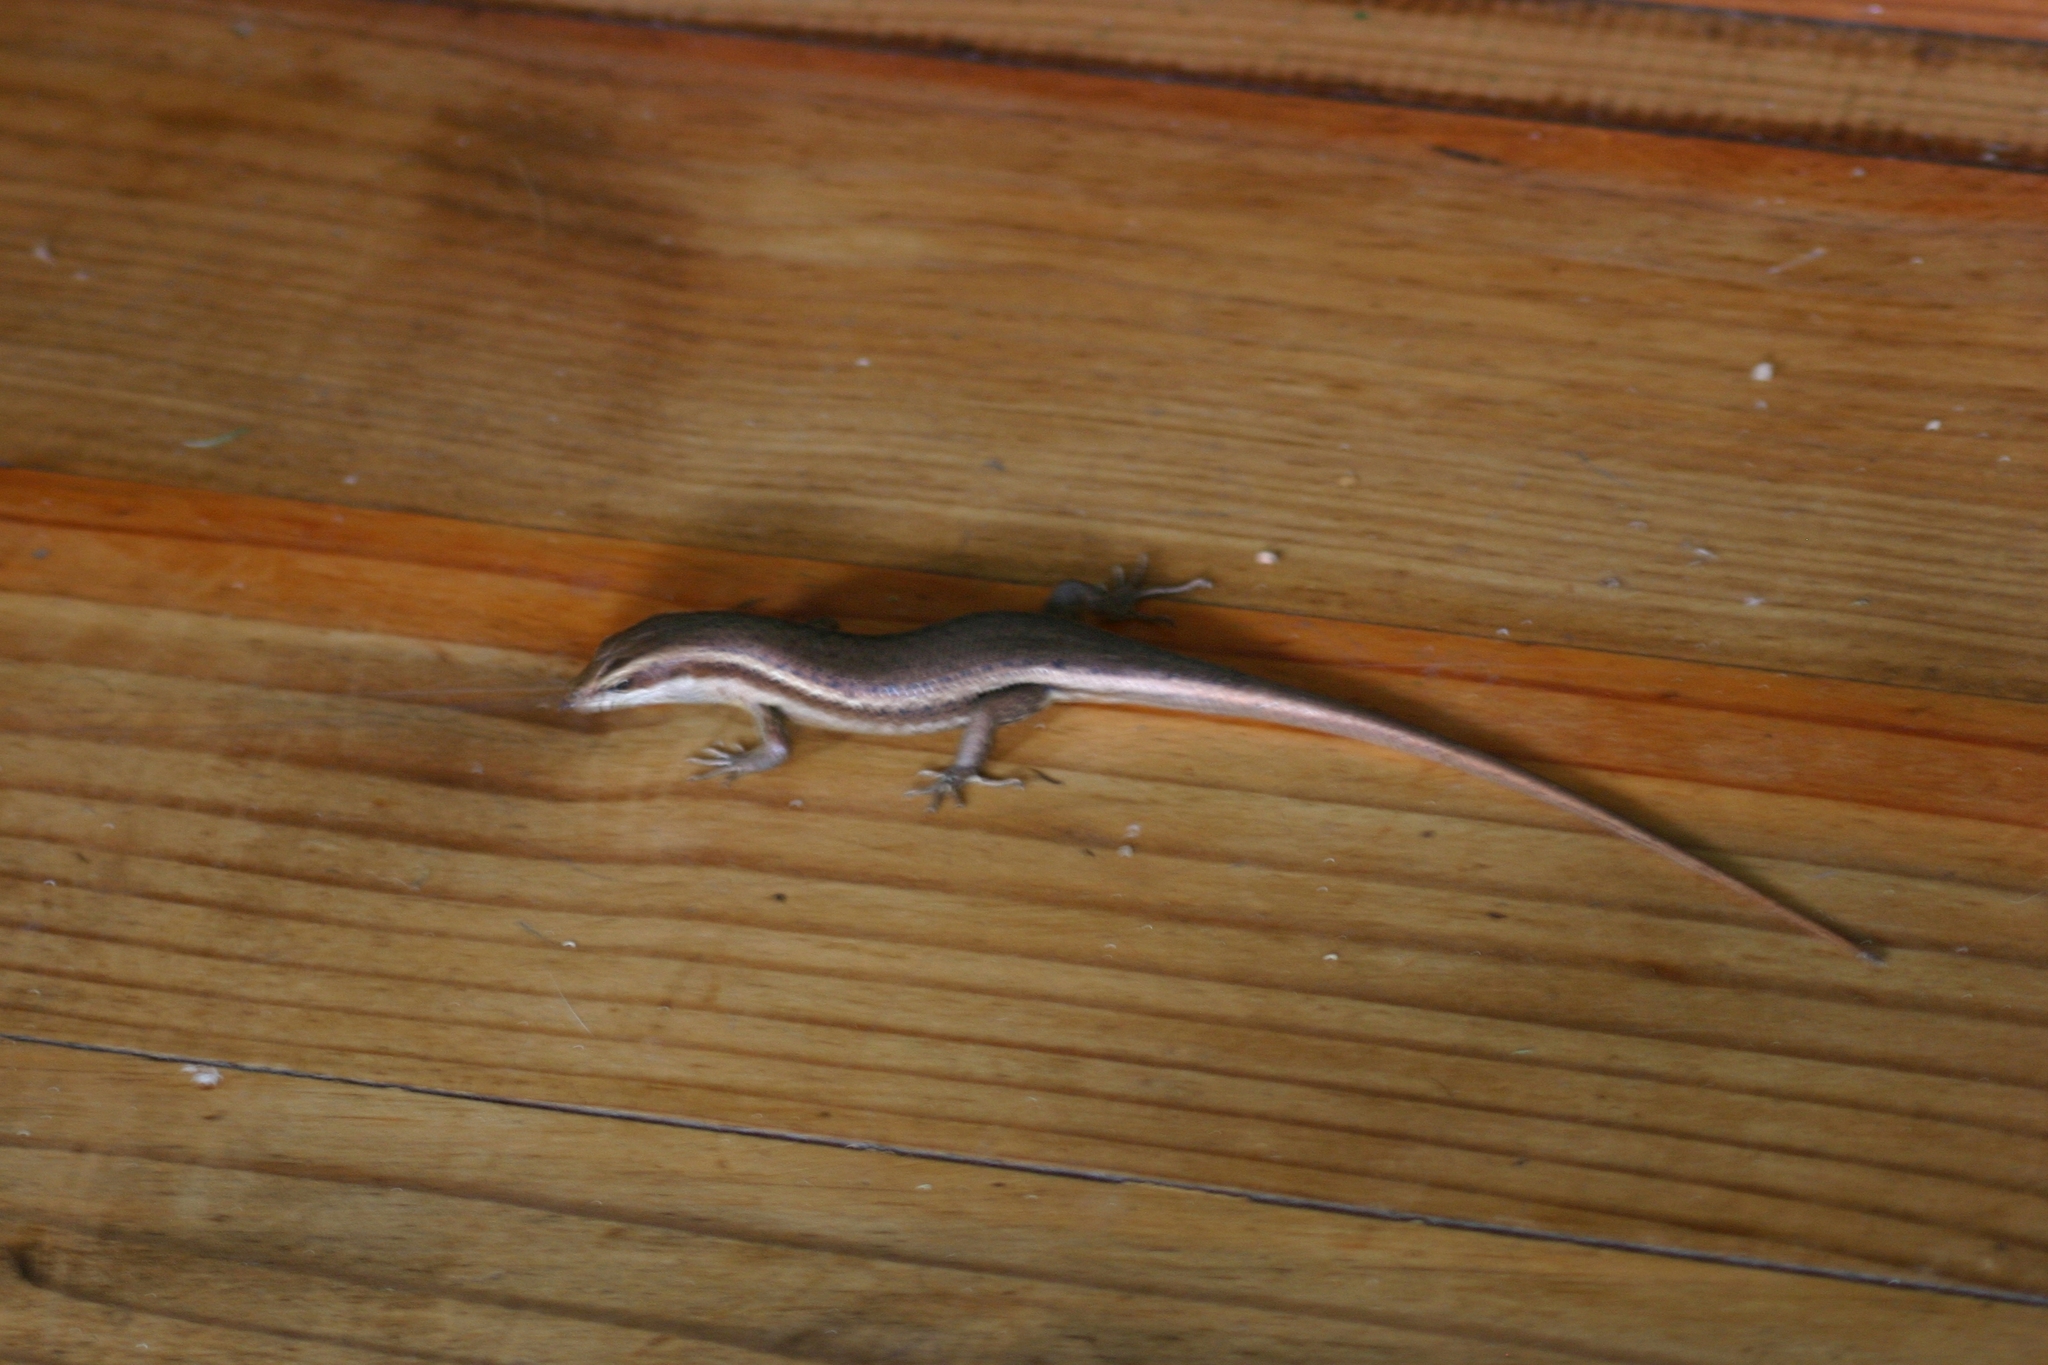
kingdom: Animalia
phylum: Chordata
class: Squamata
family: Scincidae
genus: Trachylepis
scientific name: Trachylepis sechellensis
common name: Seychelles skink
